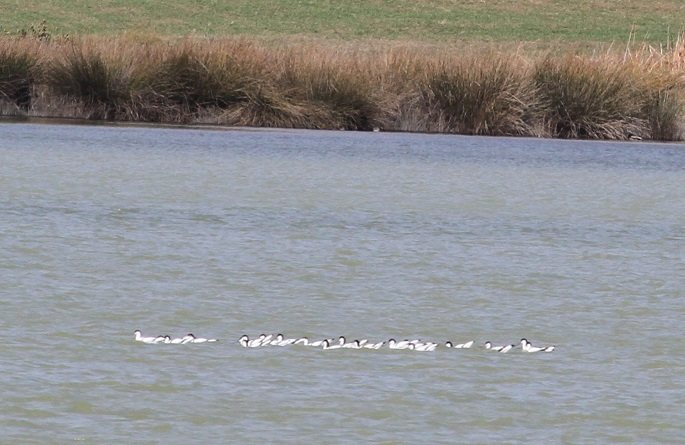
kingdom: Animalia
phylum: Chordata
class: Aves
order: Charadriiformes
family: Recurvirostridae
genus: Recurvirostra
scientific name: Recurvirostra avosetta
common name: Pied avocet
